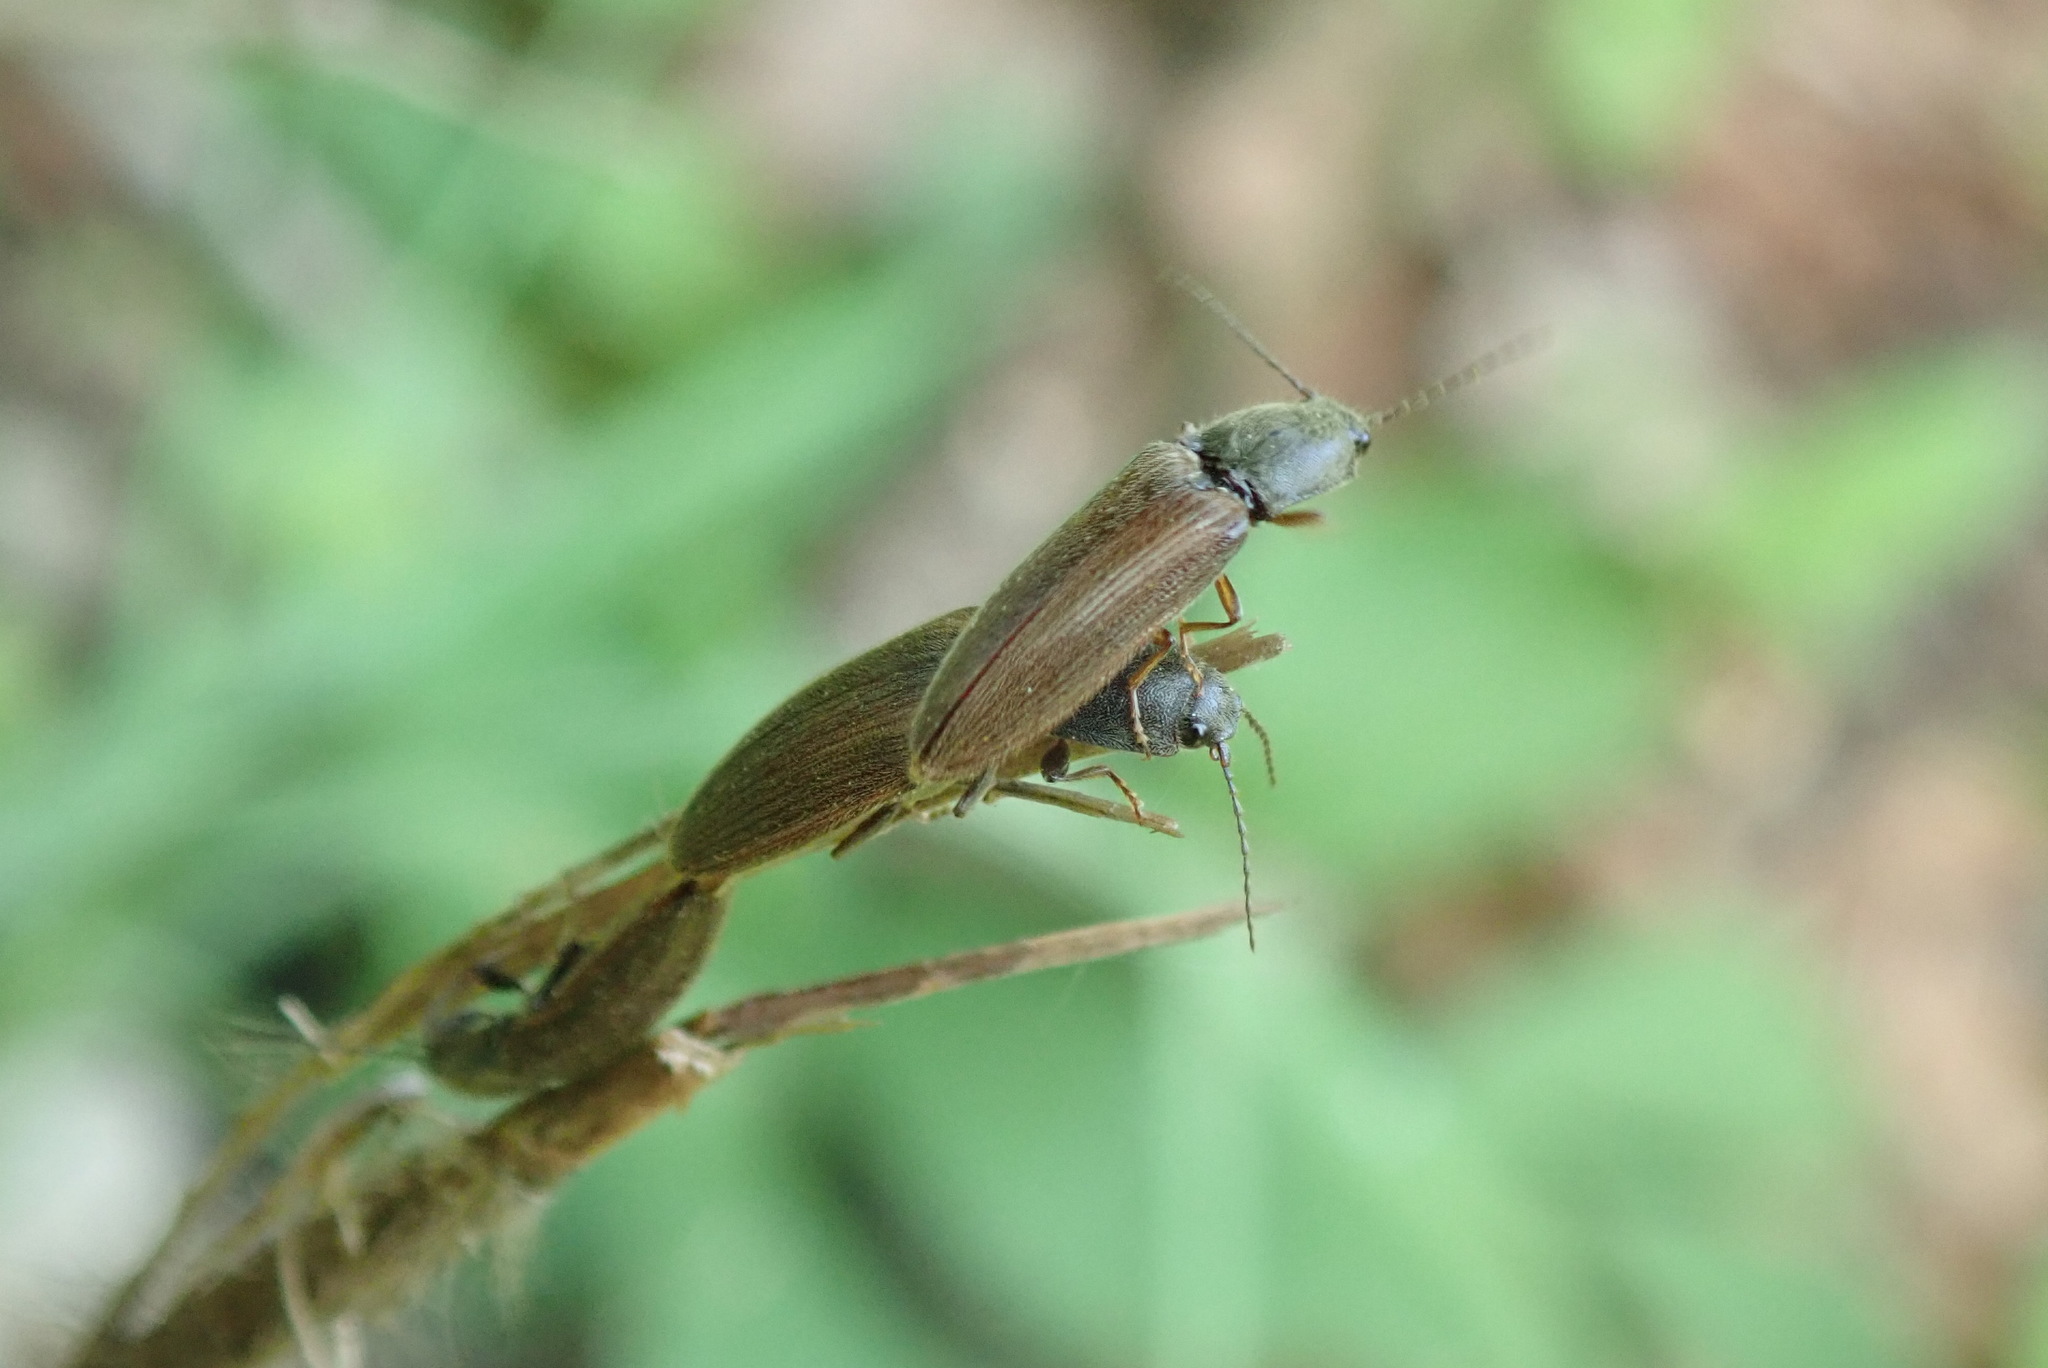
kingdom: Animalia
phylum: Arthropoda
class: Insecta
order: Coleoptera
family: Elateridae
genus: Athous
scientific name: Athous haemorrhoidalis
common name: Red-brown click beetle
